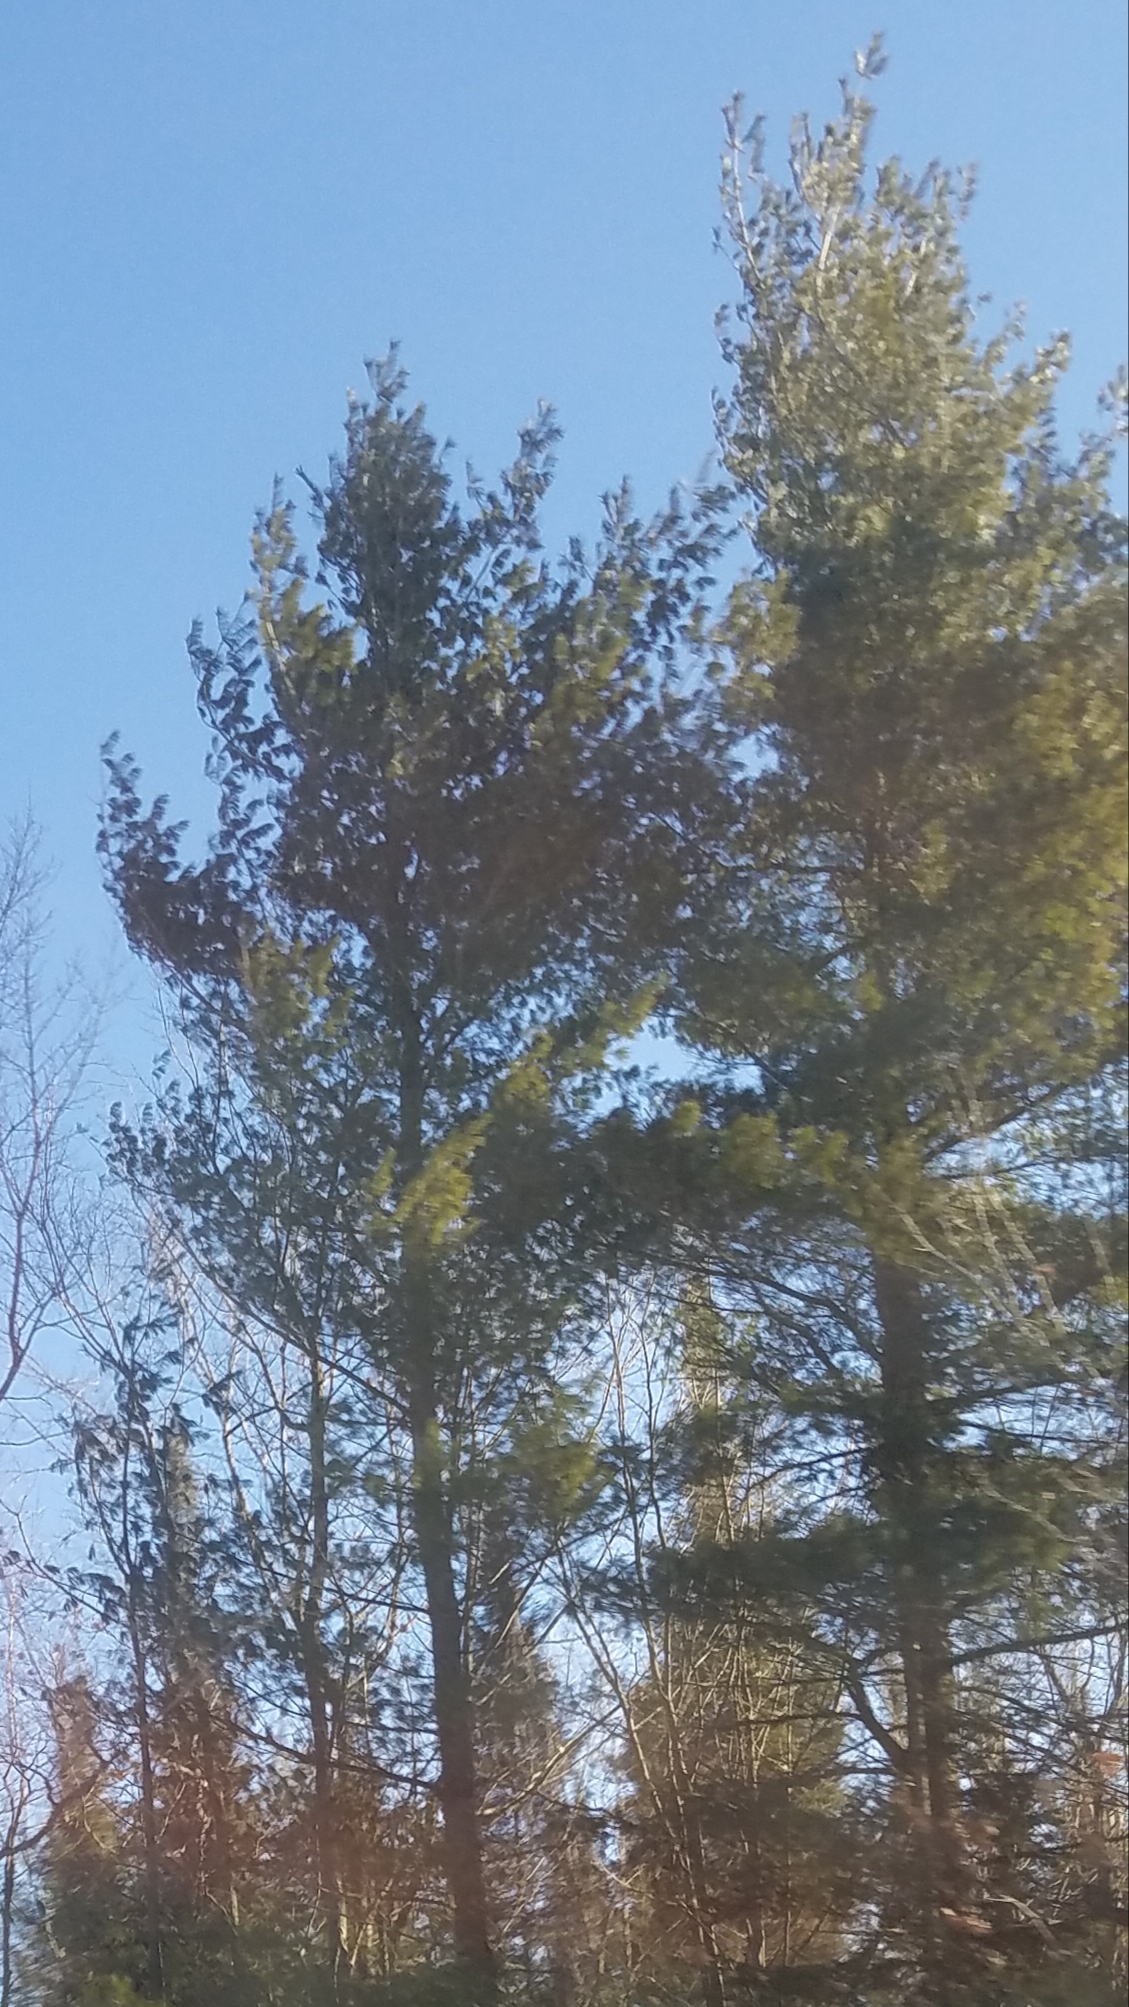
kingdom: Plantae
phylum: Tracheophyta
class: Pinopsida
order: Pinales
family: Pinaceae
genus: Pinus
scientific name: Pinus strobus
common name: Weymouth pine
